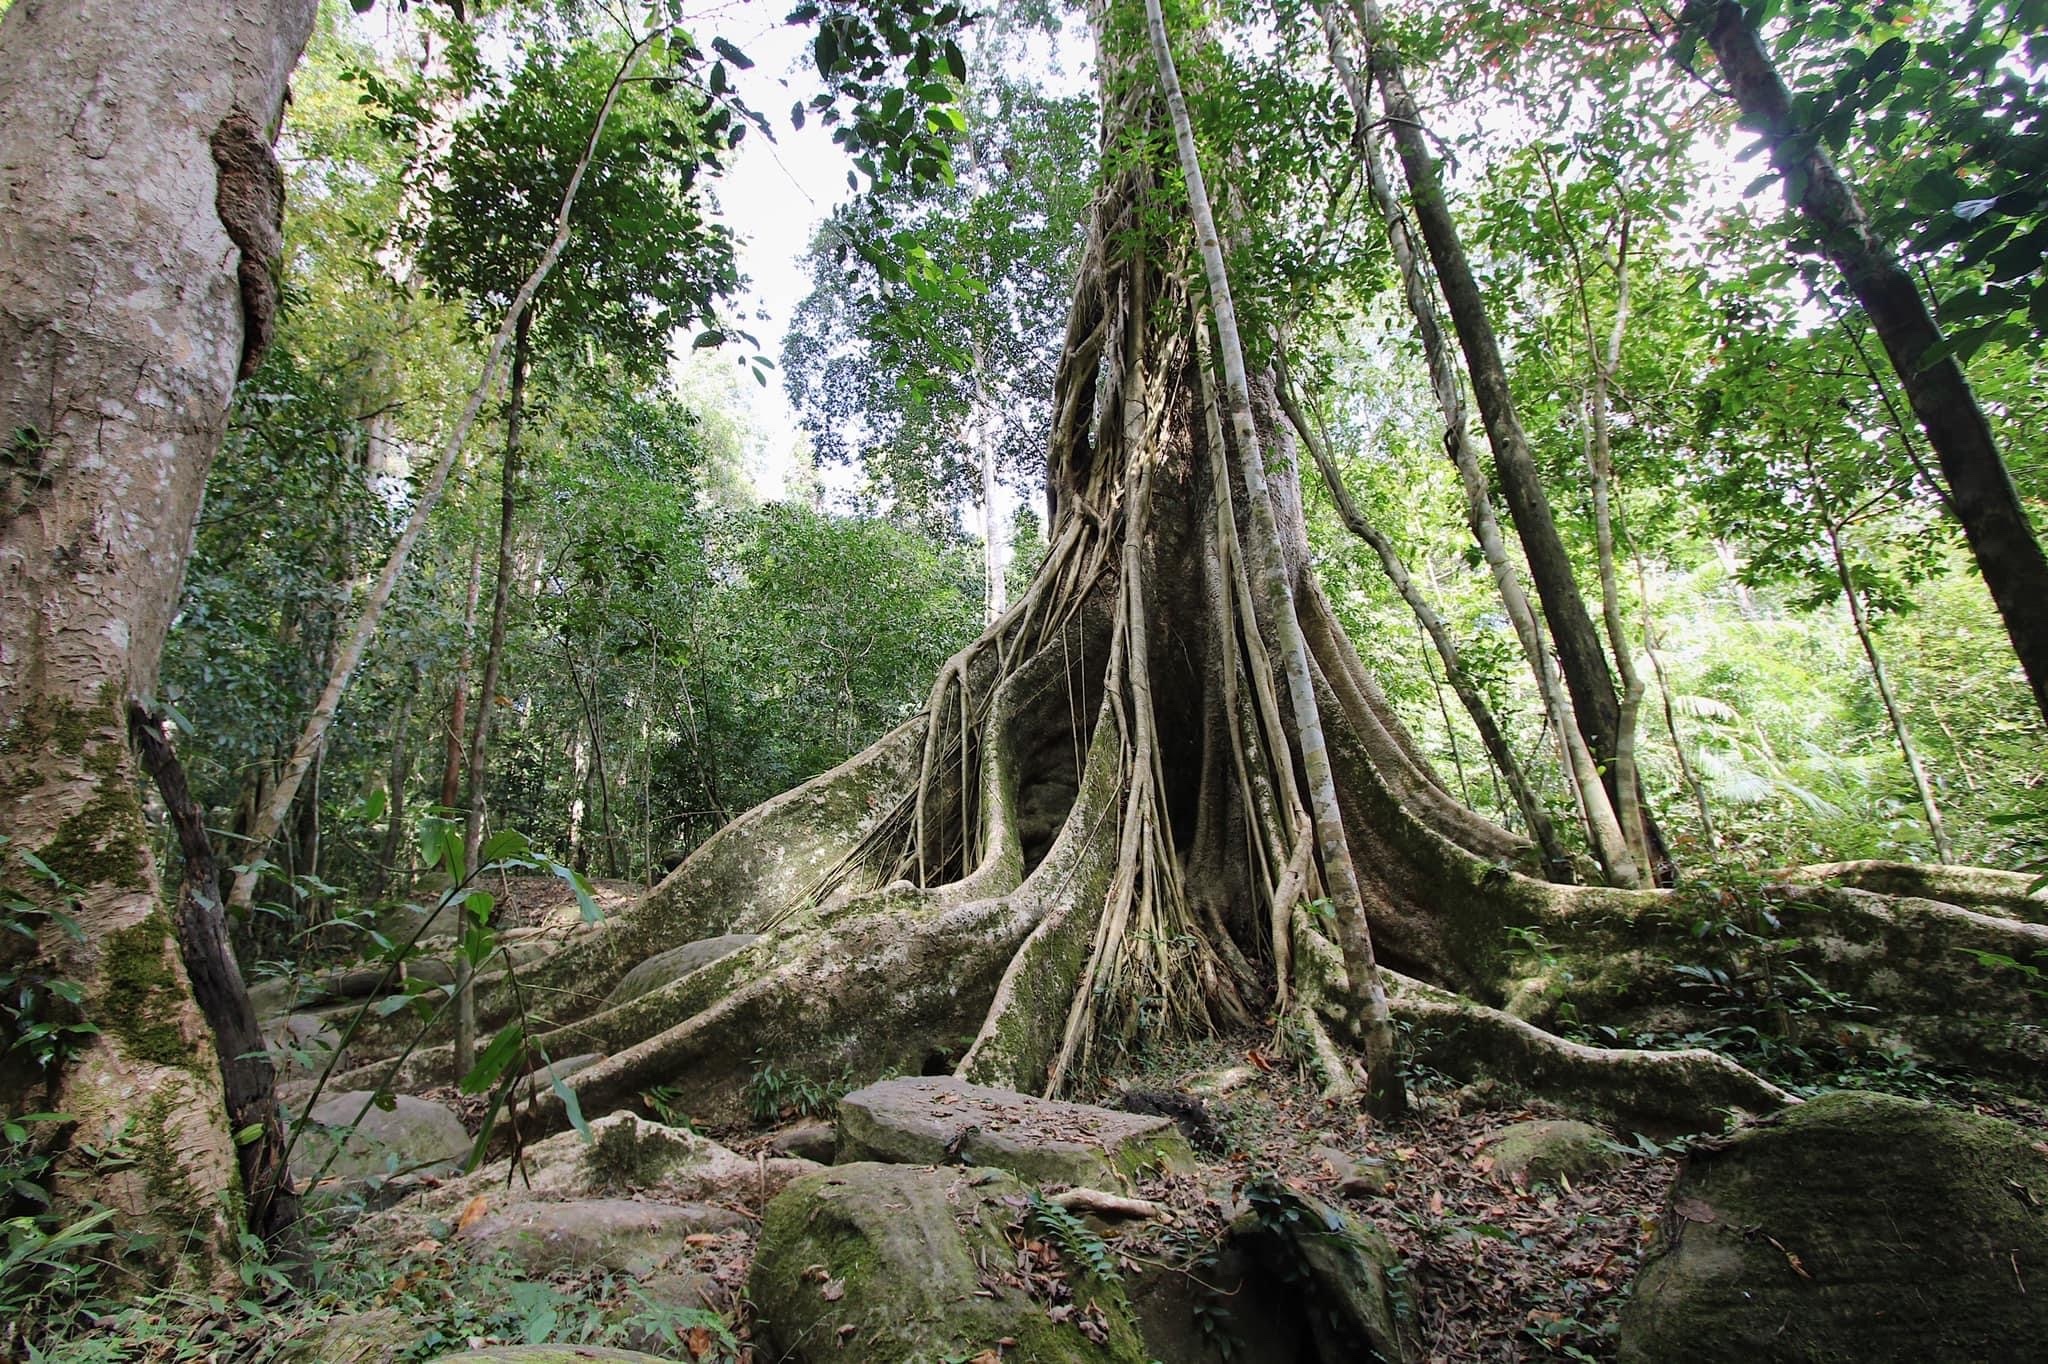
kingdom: Plantae
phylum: Tracheophyta
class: Magnoliopsida
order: Cucurbitales
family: Tetramelaceae
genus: Tetrameles
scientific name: Tetrameles nudiflora
